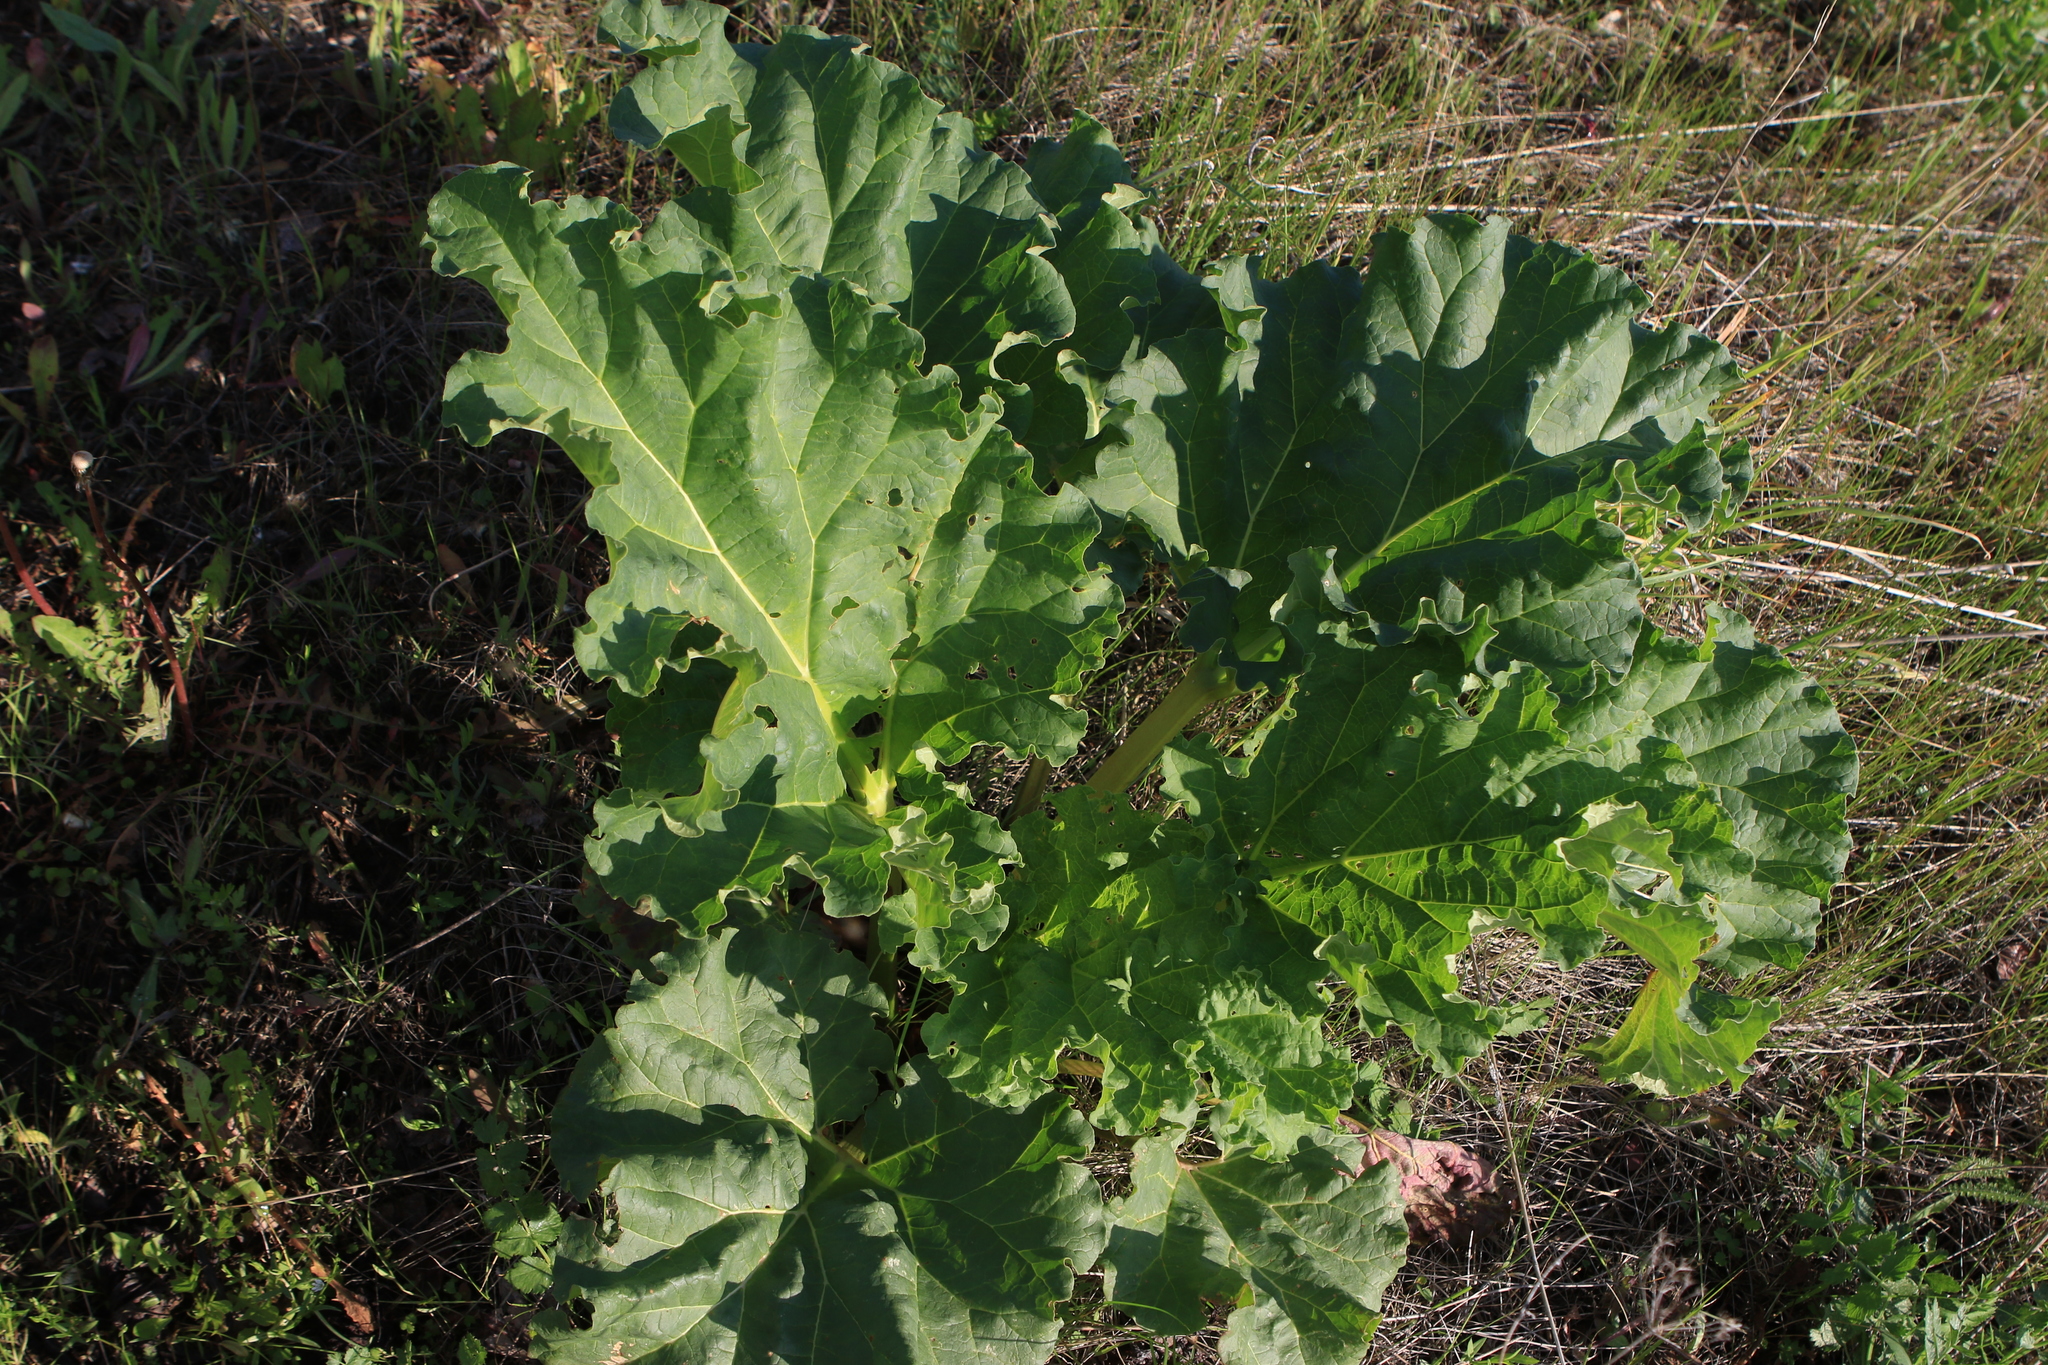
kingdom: Plantae
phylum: Tracheophyta
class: Magnoliopsida
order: Caryophyllales
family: Polygonaceae
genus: Rheum
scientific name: Rheum rhabarbarum
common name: Garden rhubarb
